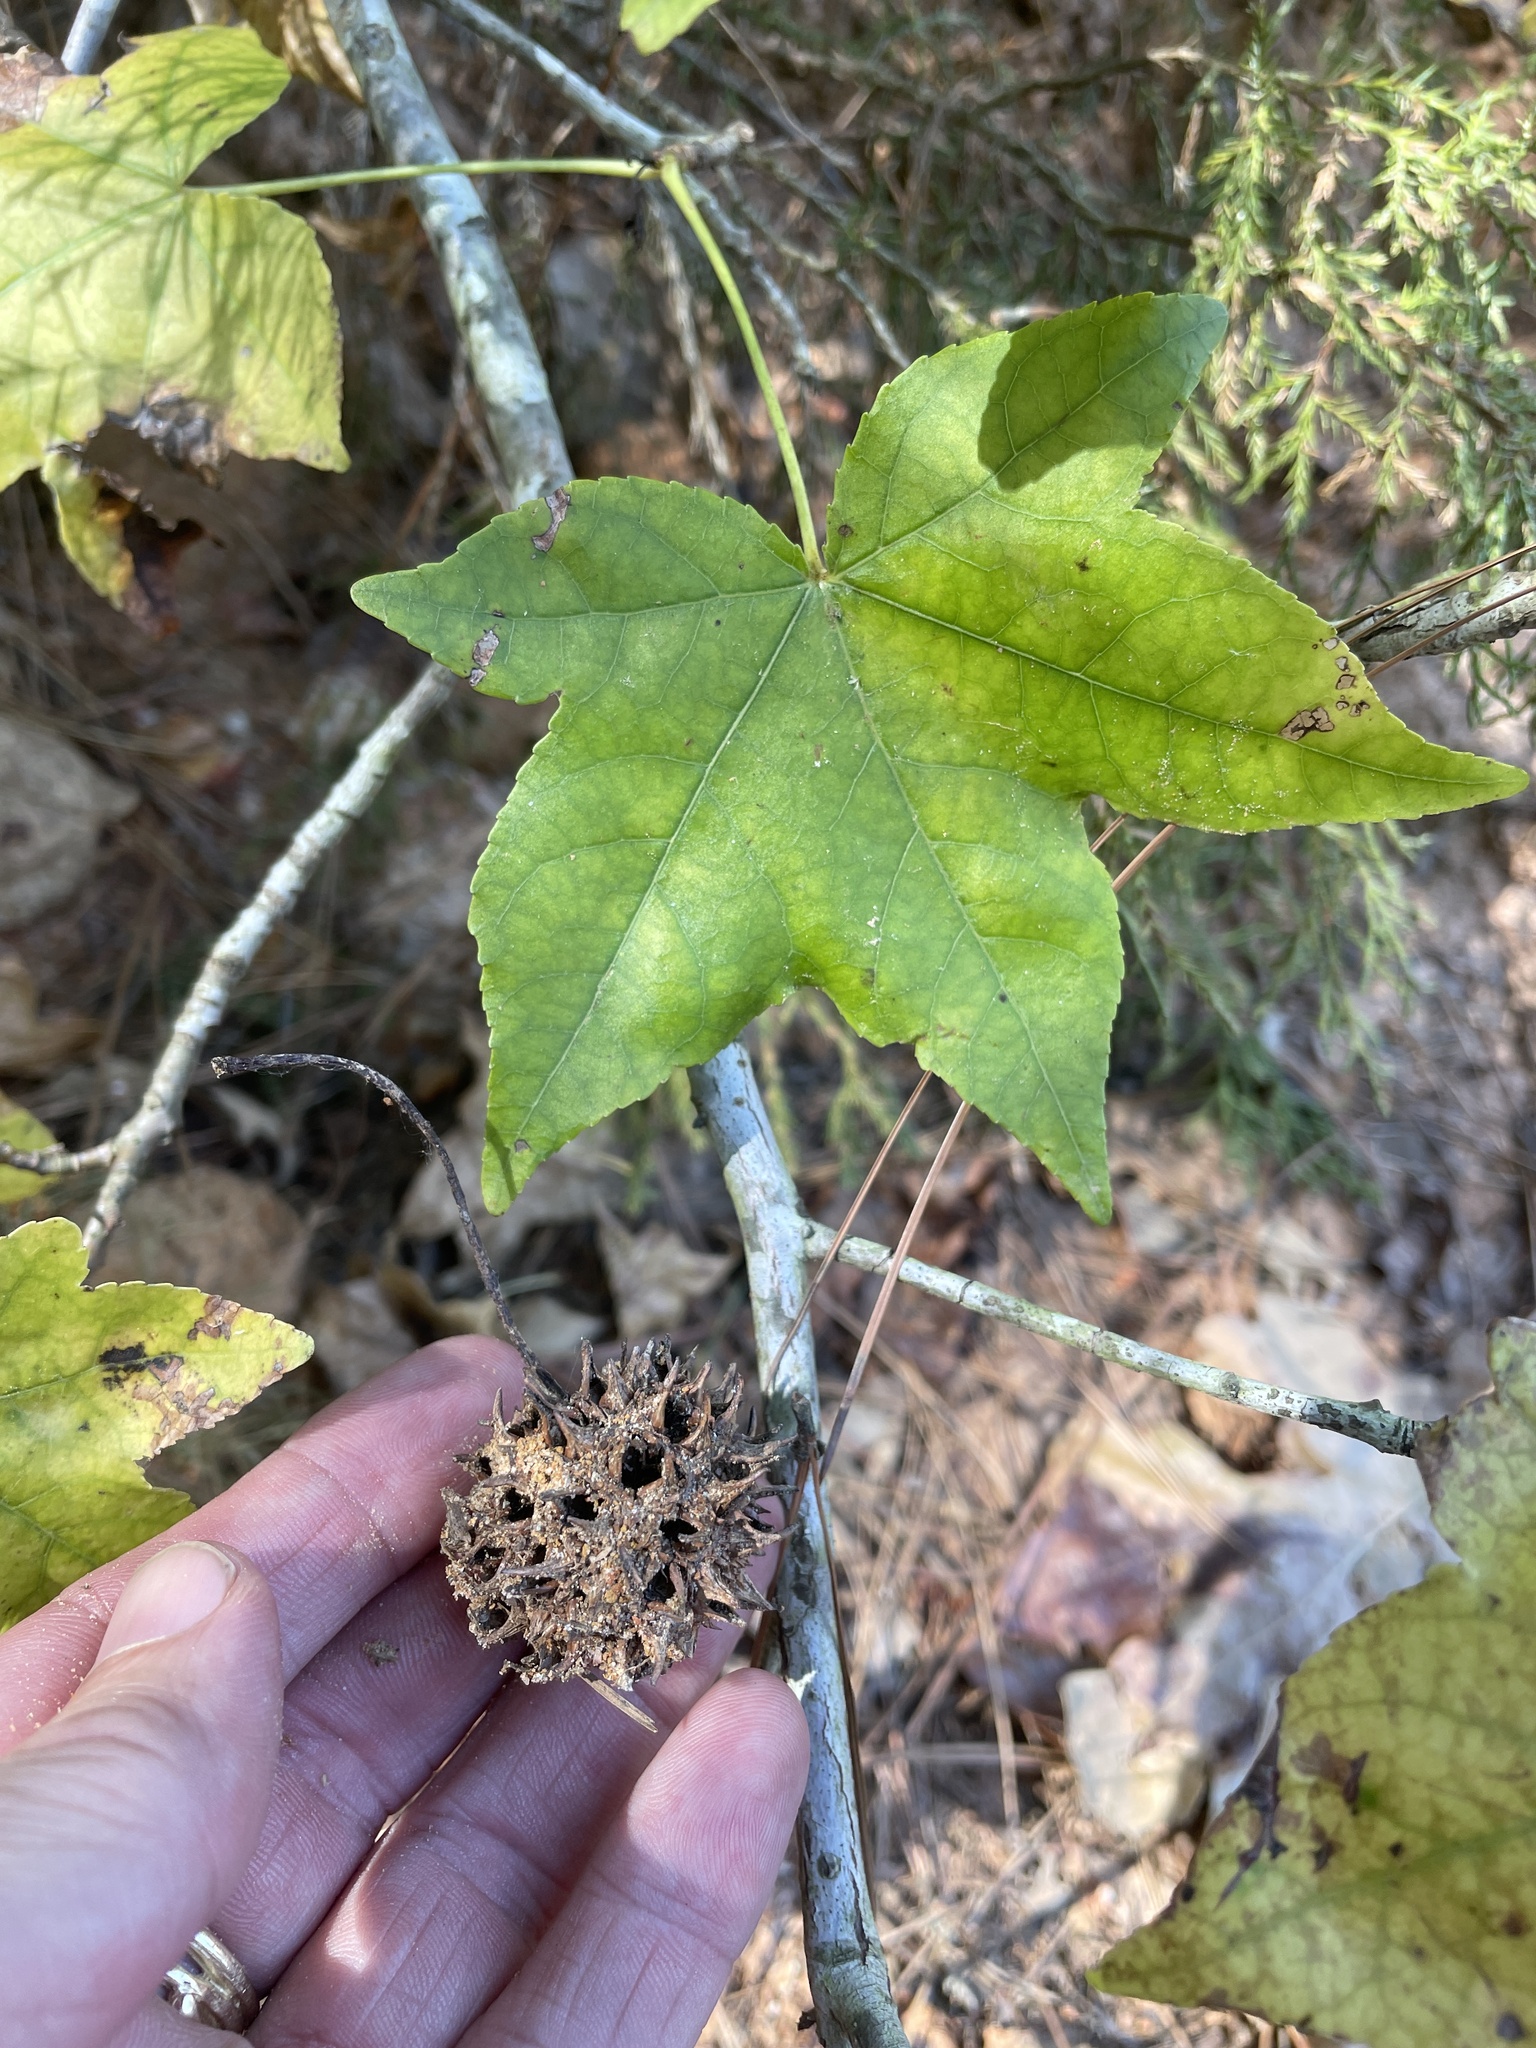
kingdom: Plantae
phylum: Tracheophyta
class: Magnoliopsida
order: Saxifragales
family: Altingiaceae
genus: Liquidambar
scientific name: Liquidambar styraciflua
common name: Sweet gum
